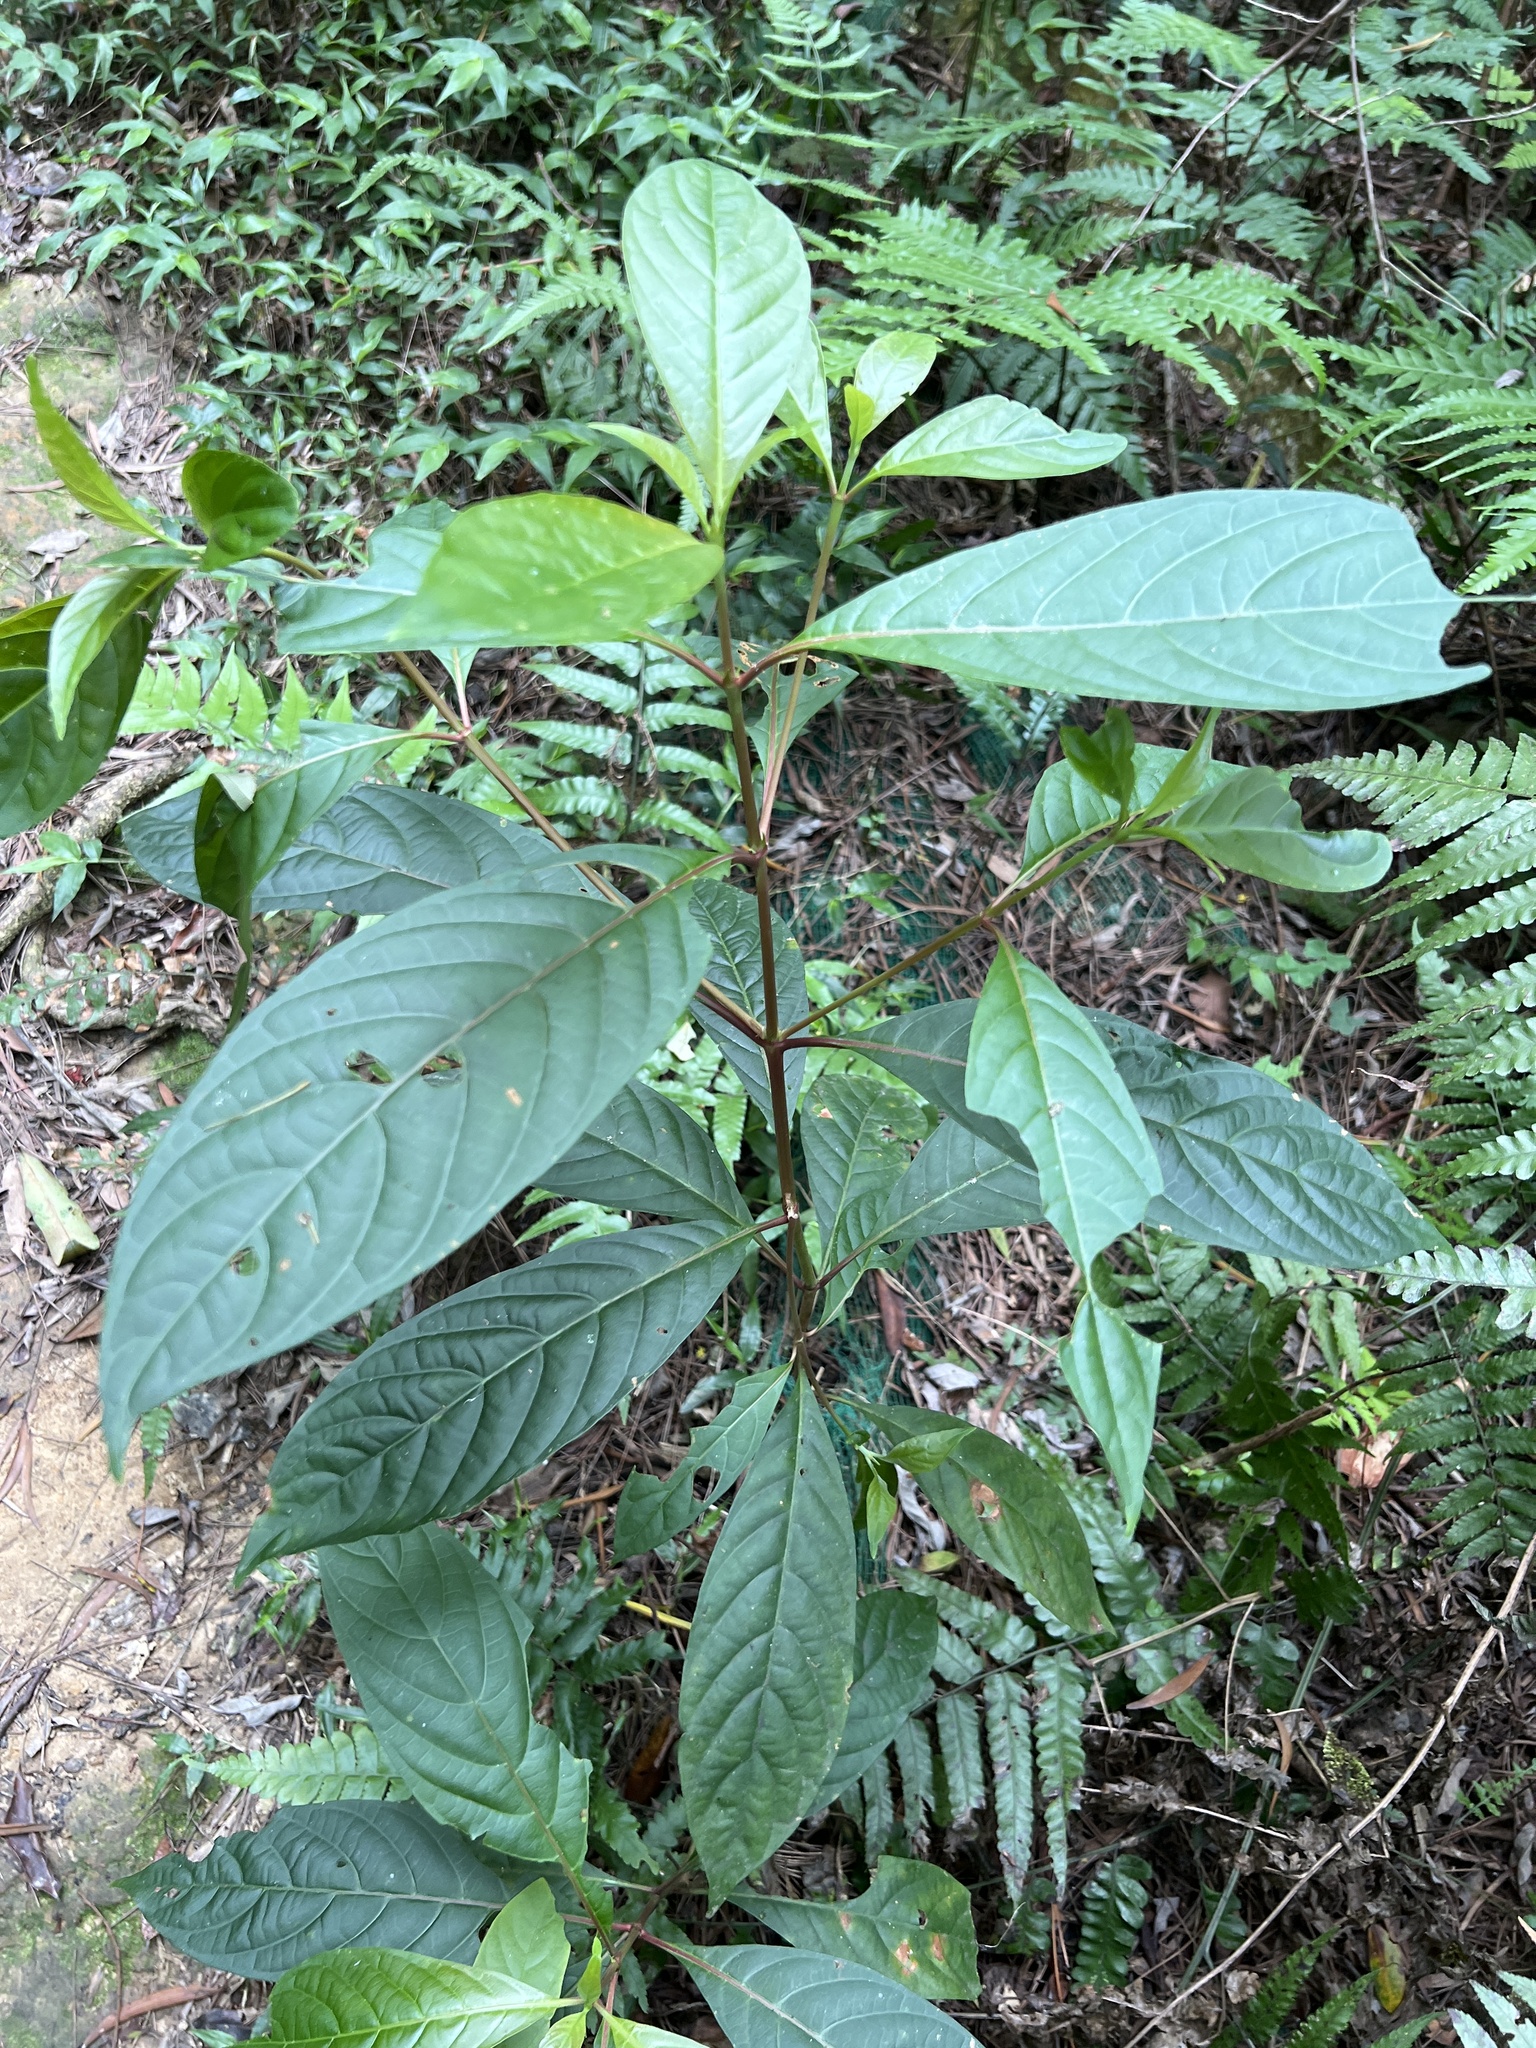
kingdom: Plantae
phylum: Tracheophyta
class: Magnoliopsida
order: Gentianales
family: Rubiaceae
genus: Wendlandia
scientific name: Wendlandia formosana
